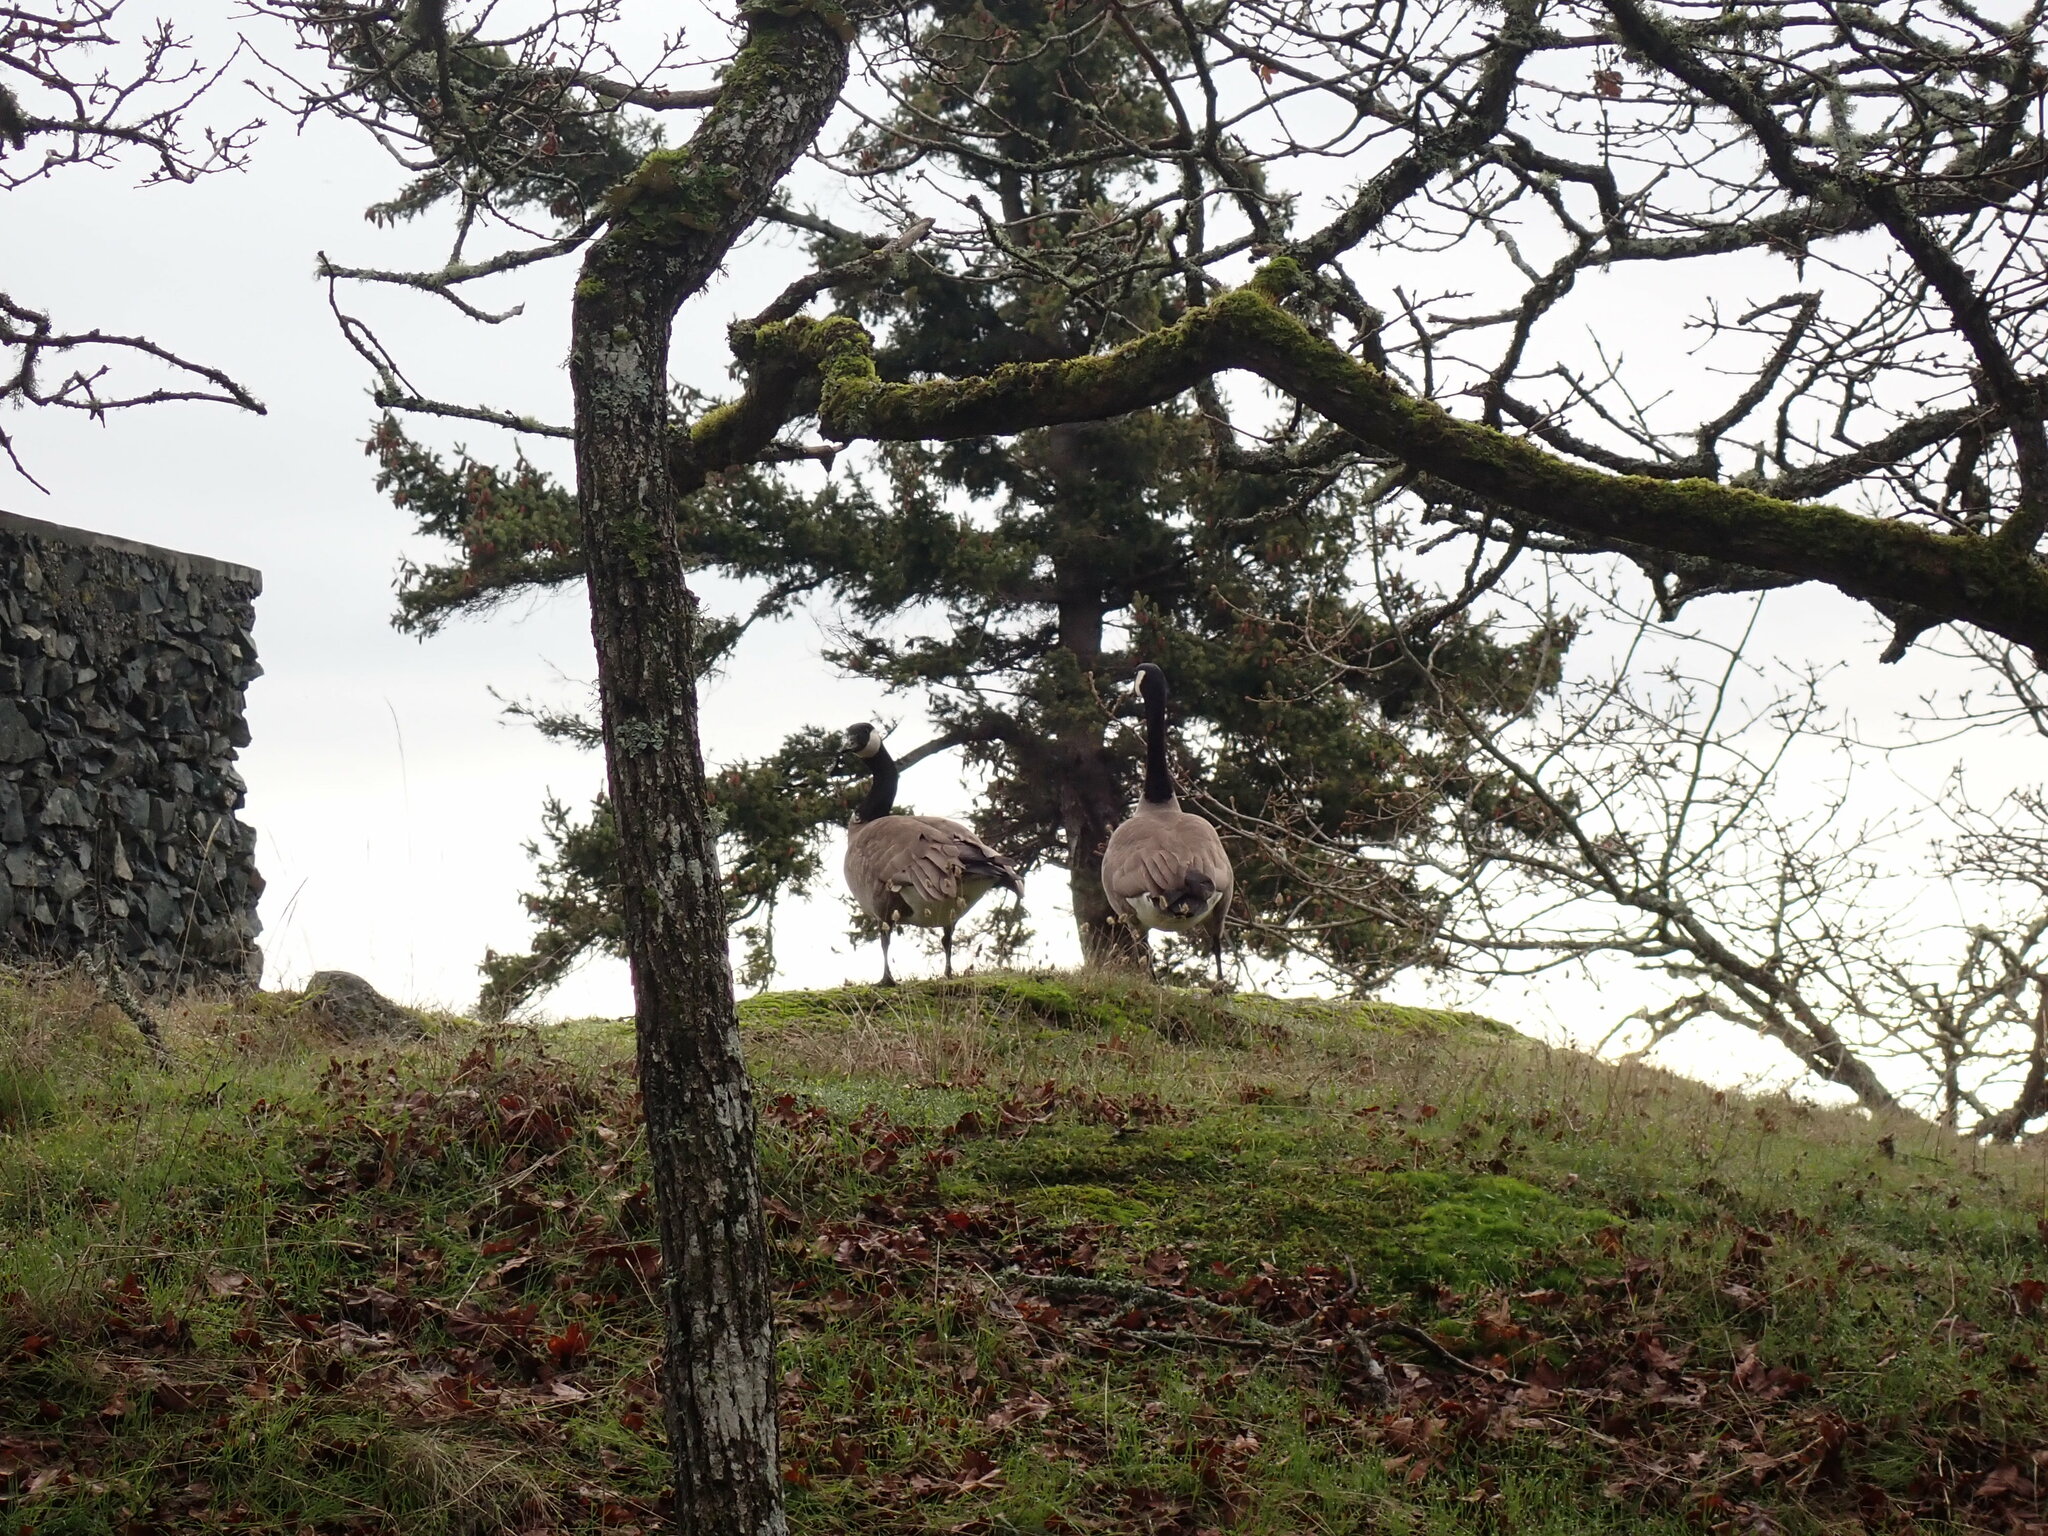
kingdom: Animalia
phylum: Chordata
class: Aves
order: Anseriformes
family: Anatidae
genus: Branta
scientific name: Branta canadensis
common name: Canada goose
